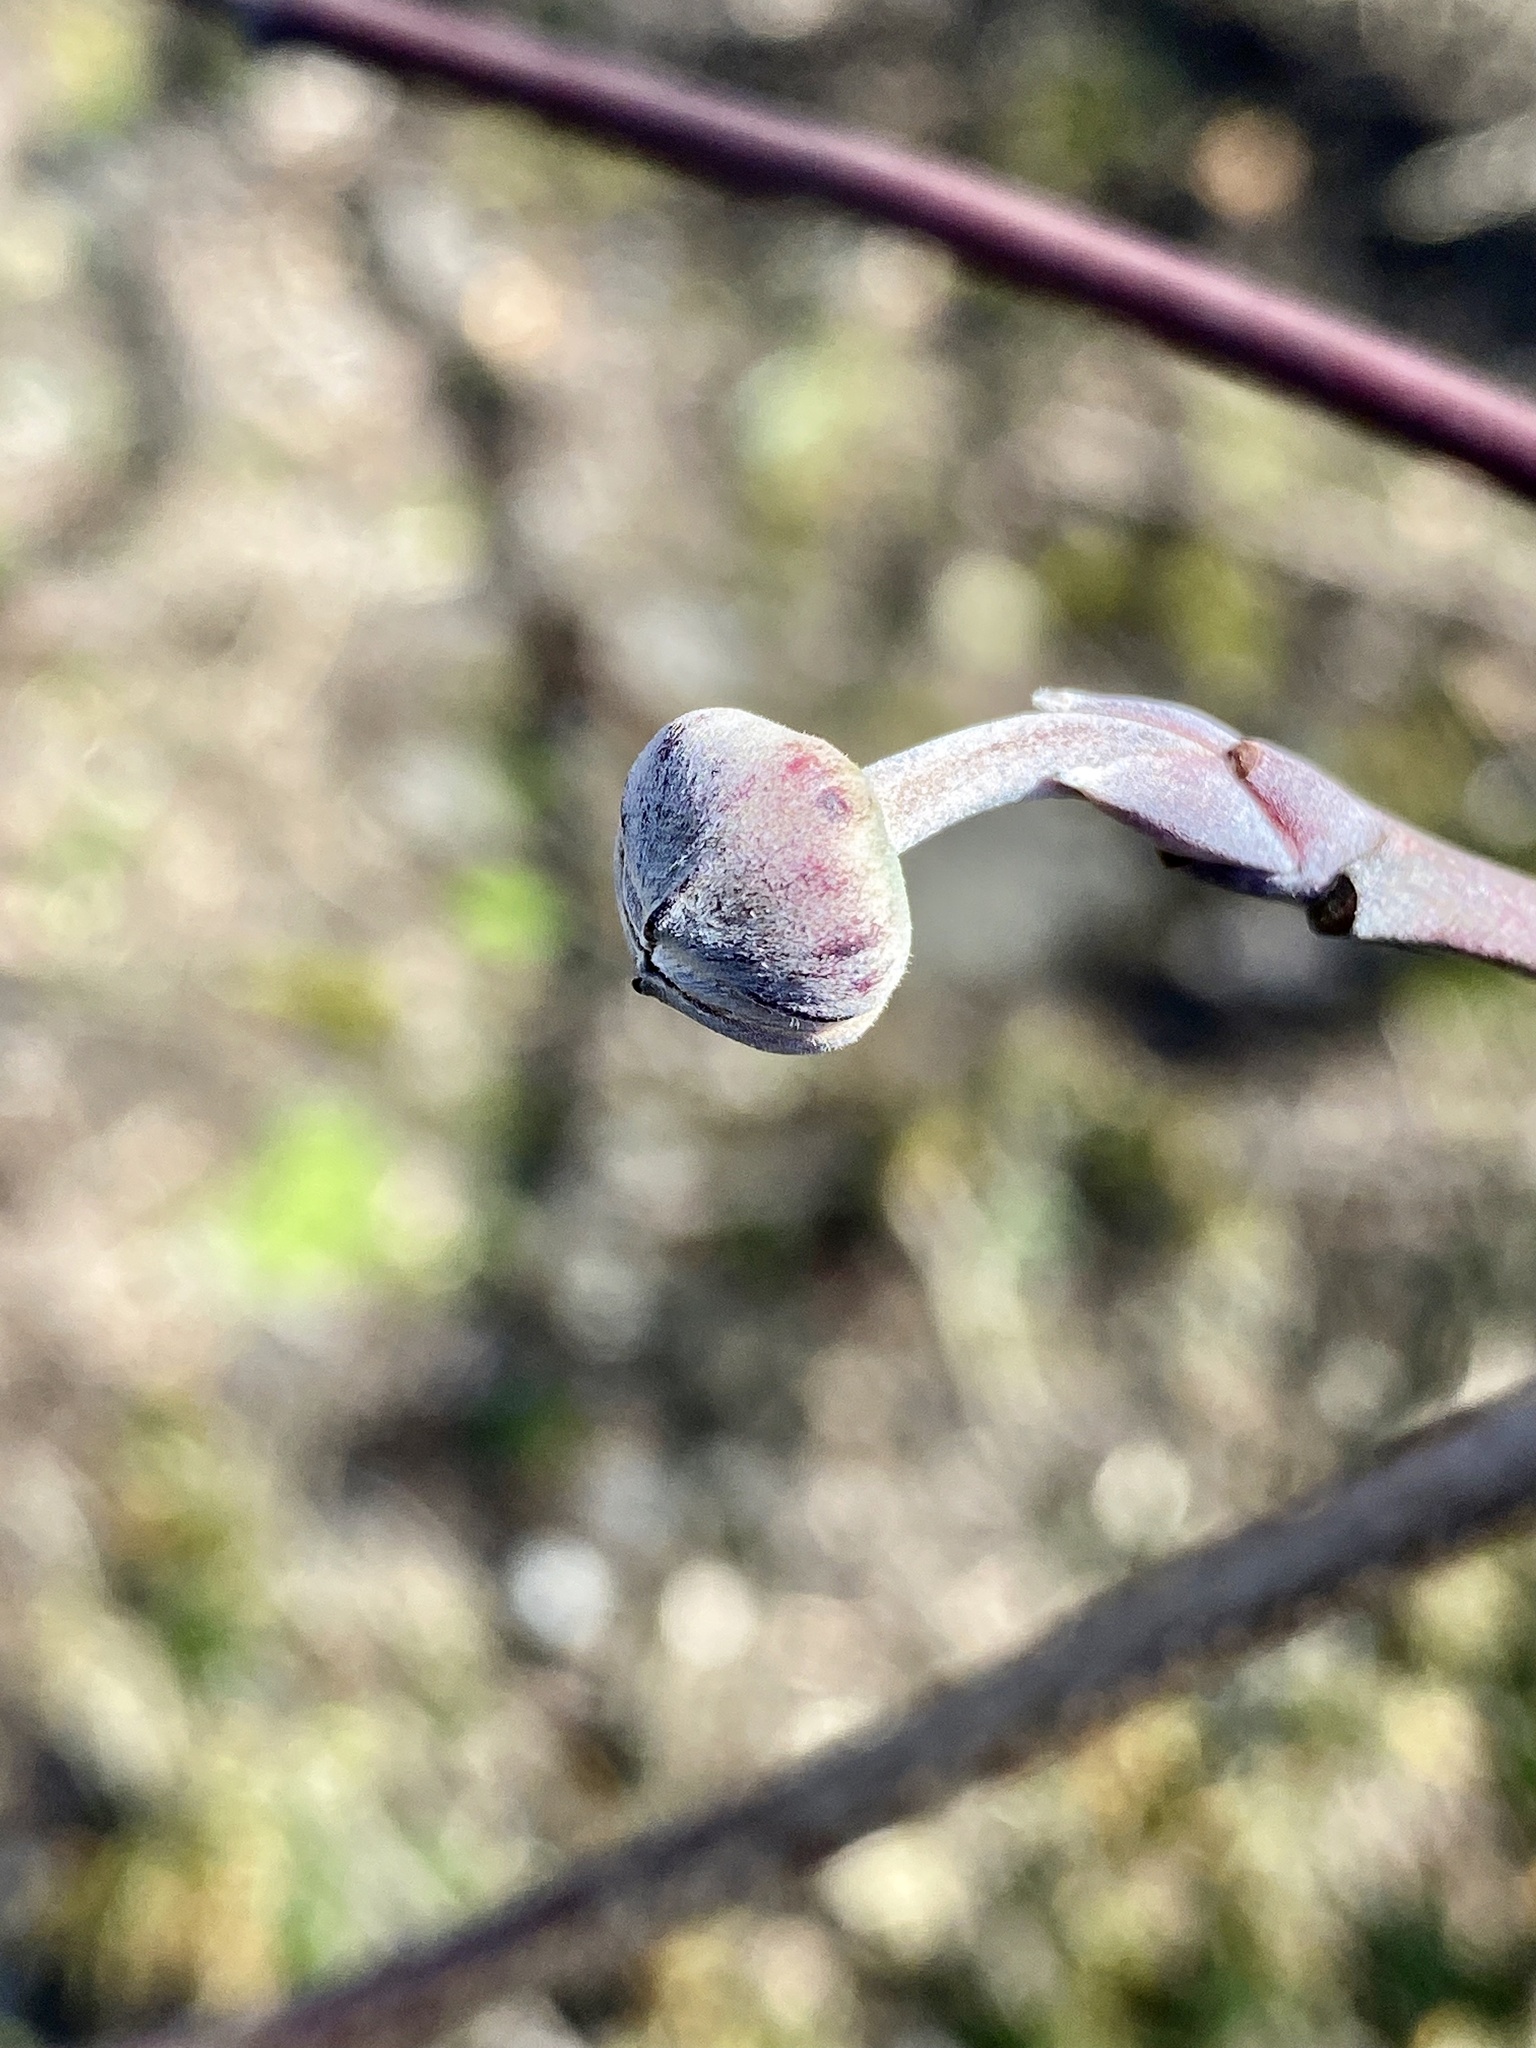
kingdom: Plantae
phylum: Tracheophyta
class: Magnoliopsida
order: Cornales
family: Cornaceae
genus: Cornus
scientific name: Cornus florida
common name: Flowering dogwood
